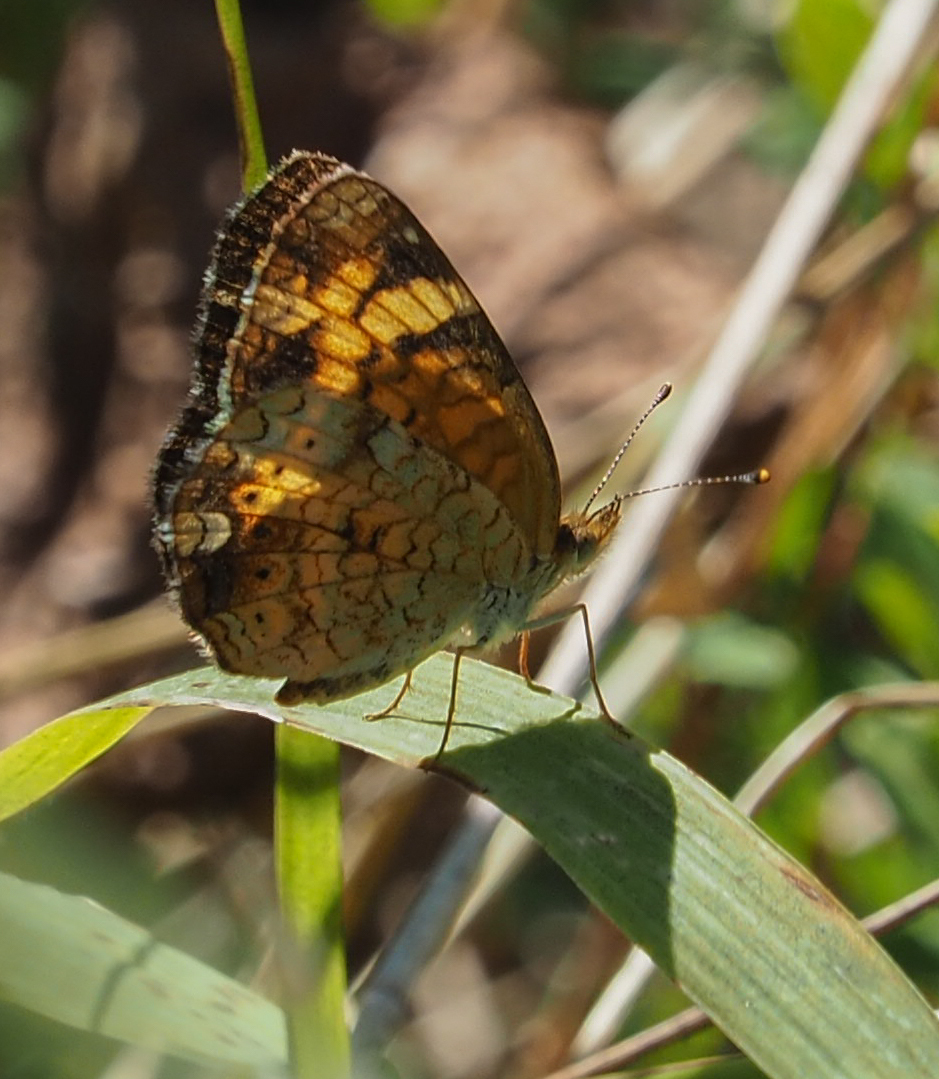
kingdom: Animalia
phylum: Arthropoda
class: Insecta
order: Lepidoptera
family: Nymphalidae
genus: Phyciodes
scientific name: Phyciodes tharos
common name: Pearl crescent
